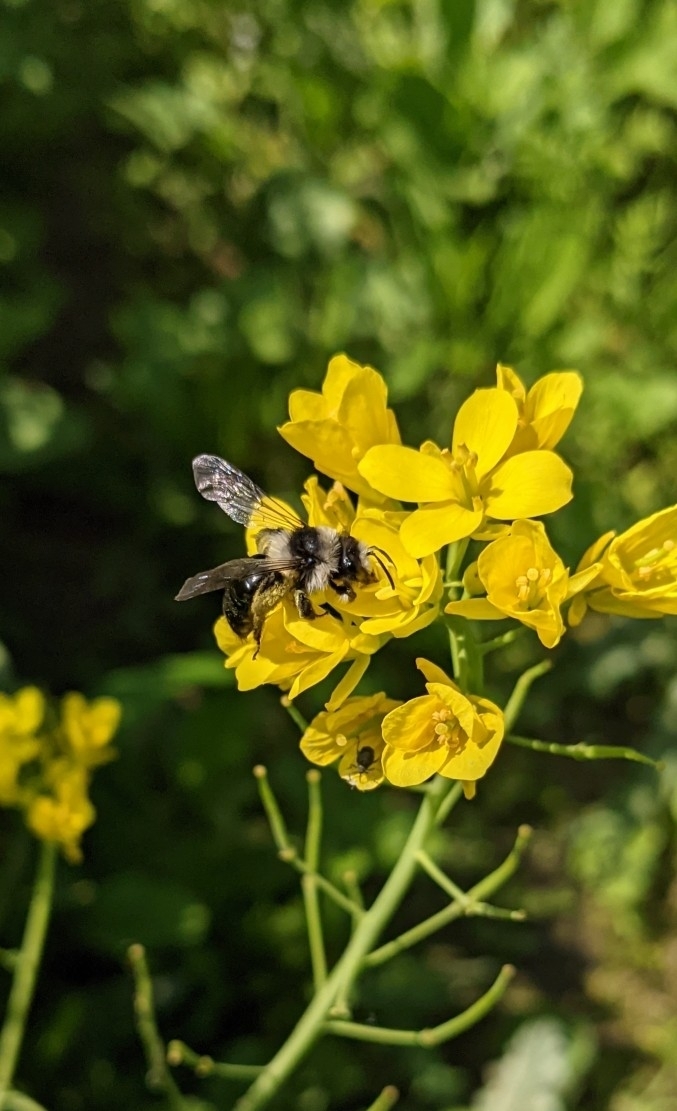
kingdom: Animalia
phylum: Arthropoda
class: Insecta
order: Hymenoptera
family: Andrenidae
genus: Andrena
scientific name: Andrena cineraria
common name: Ashy mining bee
